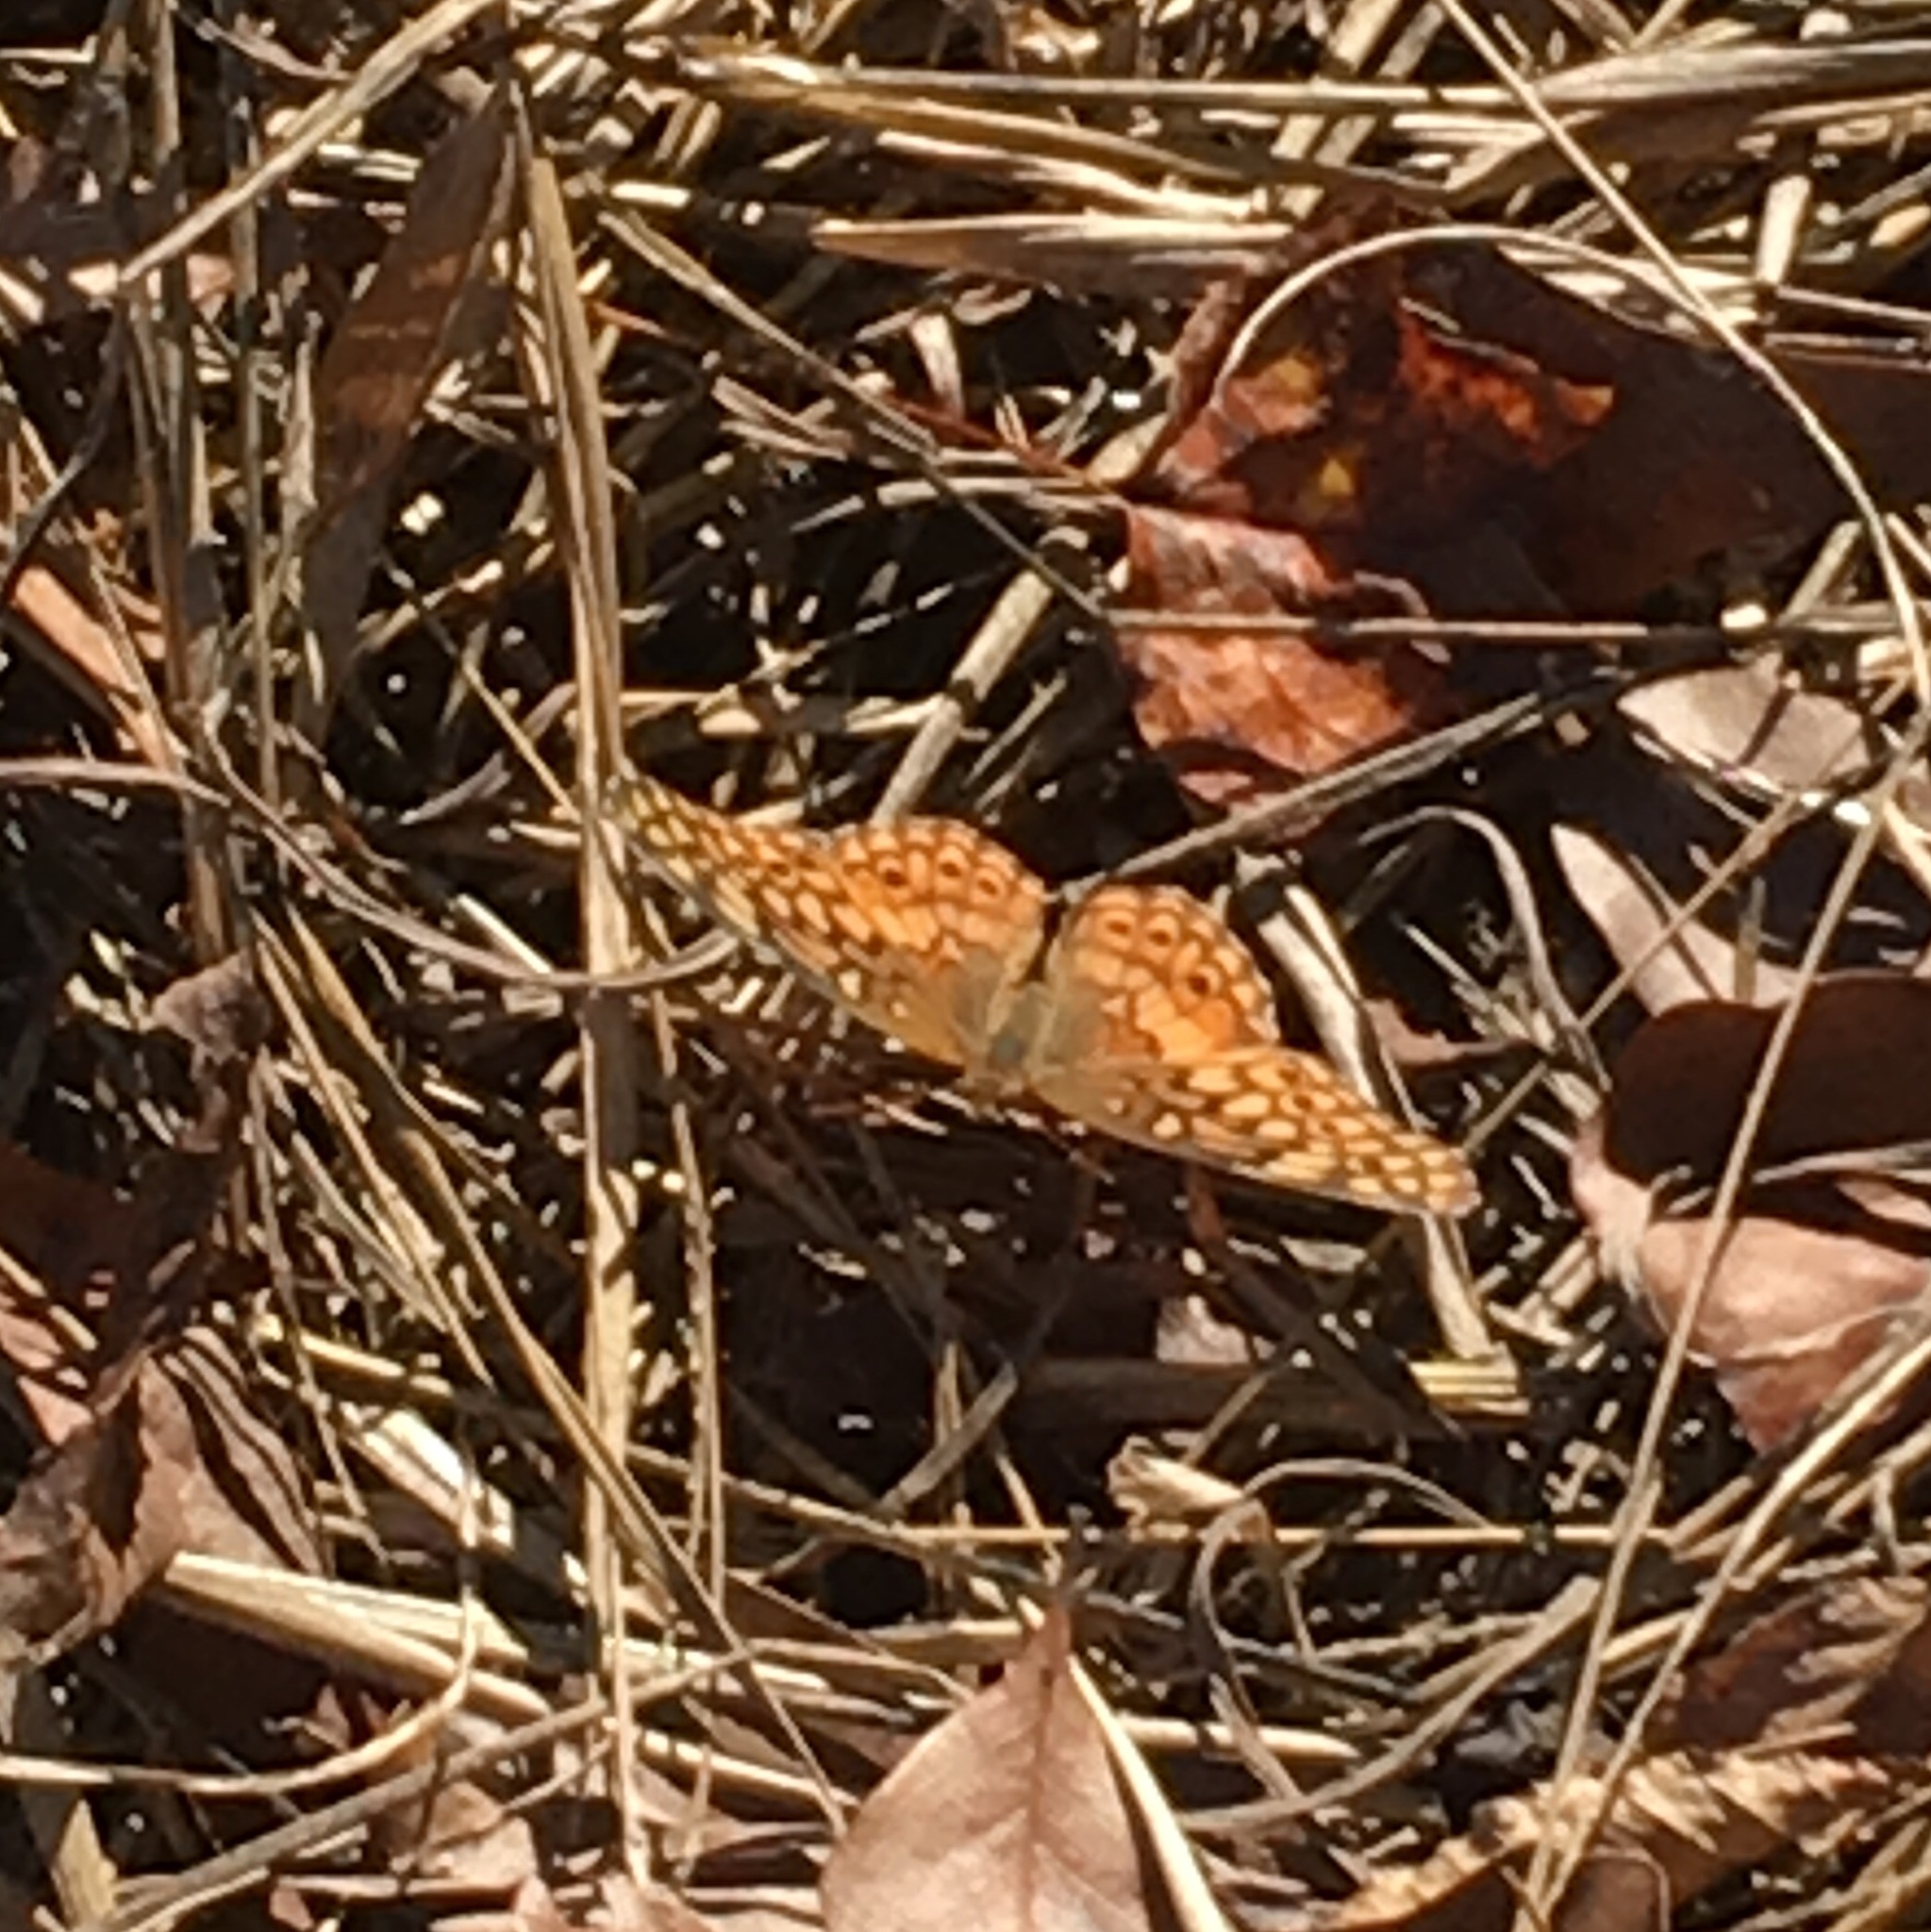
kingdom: Animalia
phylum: Arthropoda
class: Insecta
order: Lepidoptera
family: Nymphalidae
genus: Euptoieta
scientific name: Euptoieta claudia
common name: Variegated fritillary
